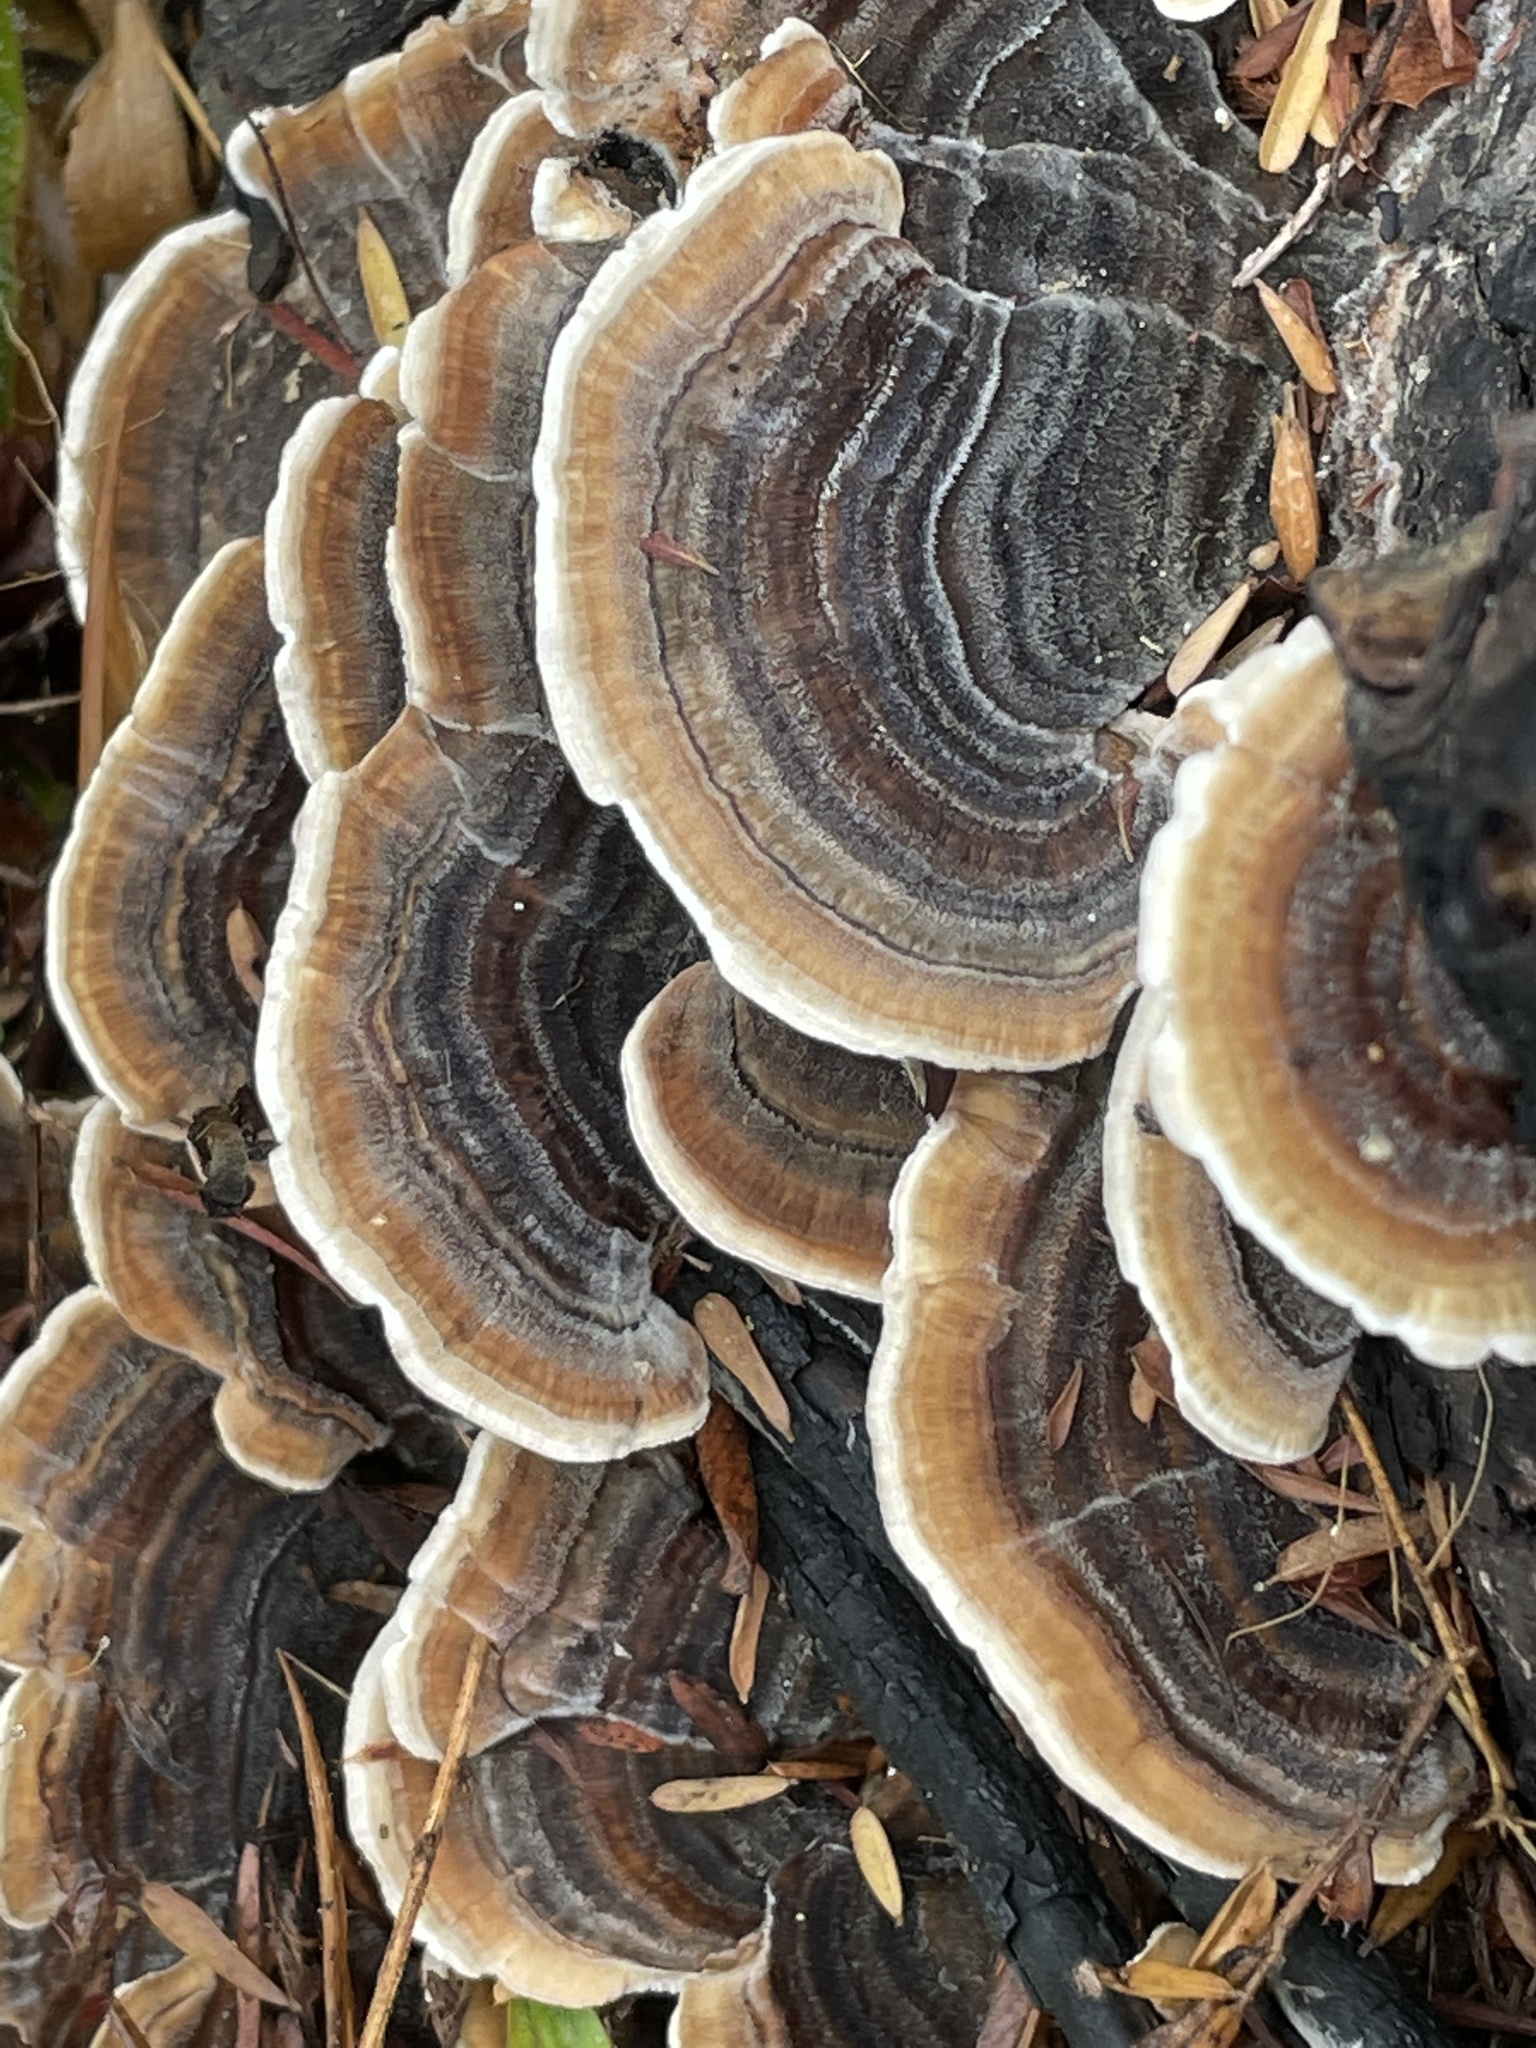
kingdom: Fungi
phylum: Basidiomycota
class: Agaricomycetes
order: Polyporales
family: Polyporaceae
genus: Trametes
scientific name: Trametes versicolor
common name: Turkeytail
